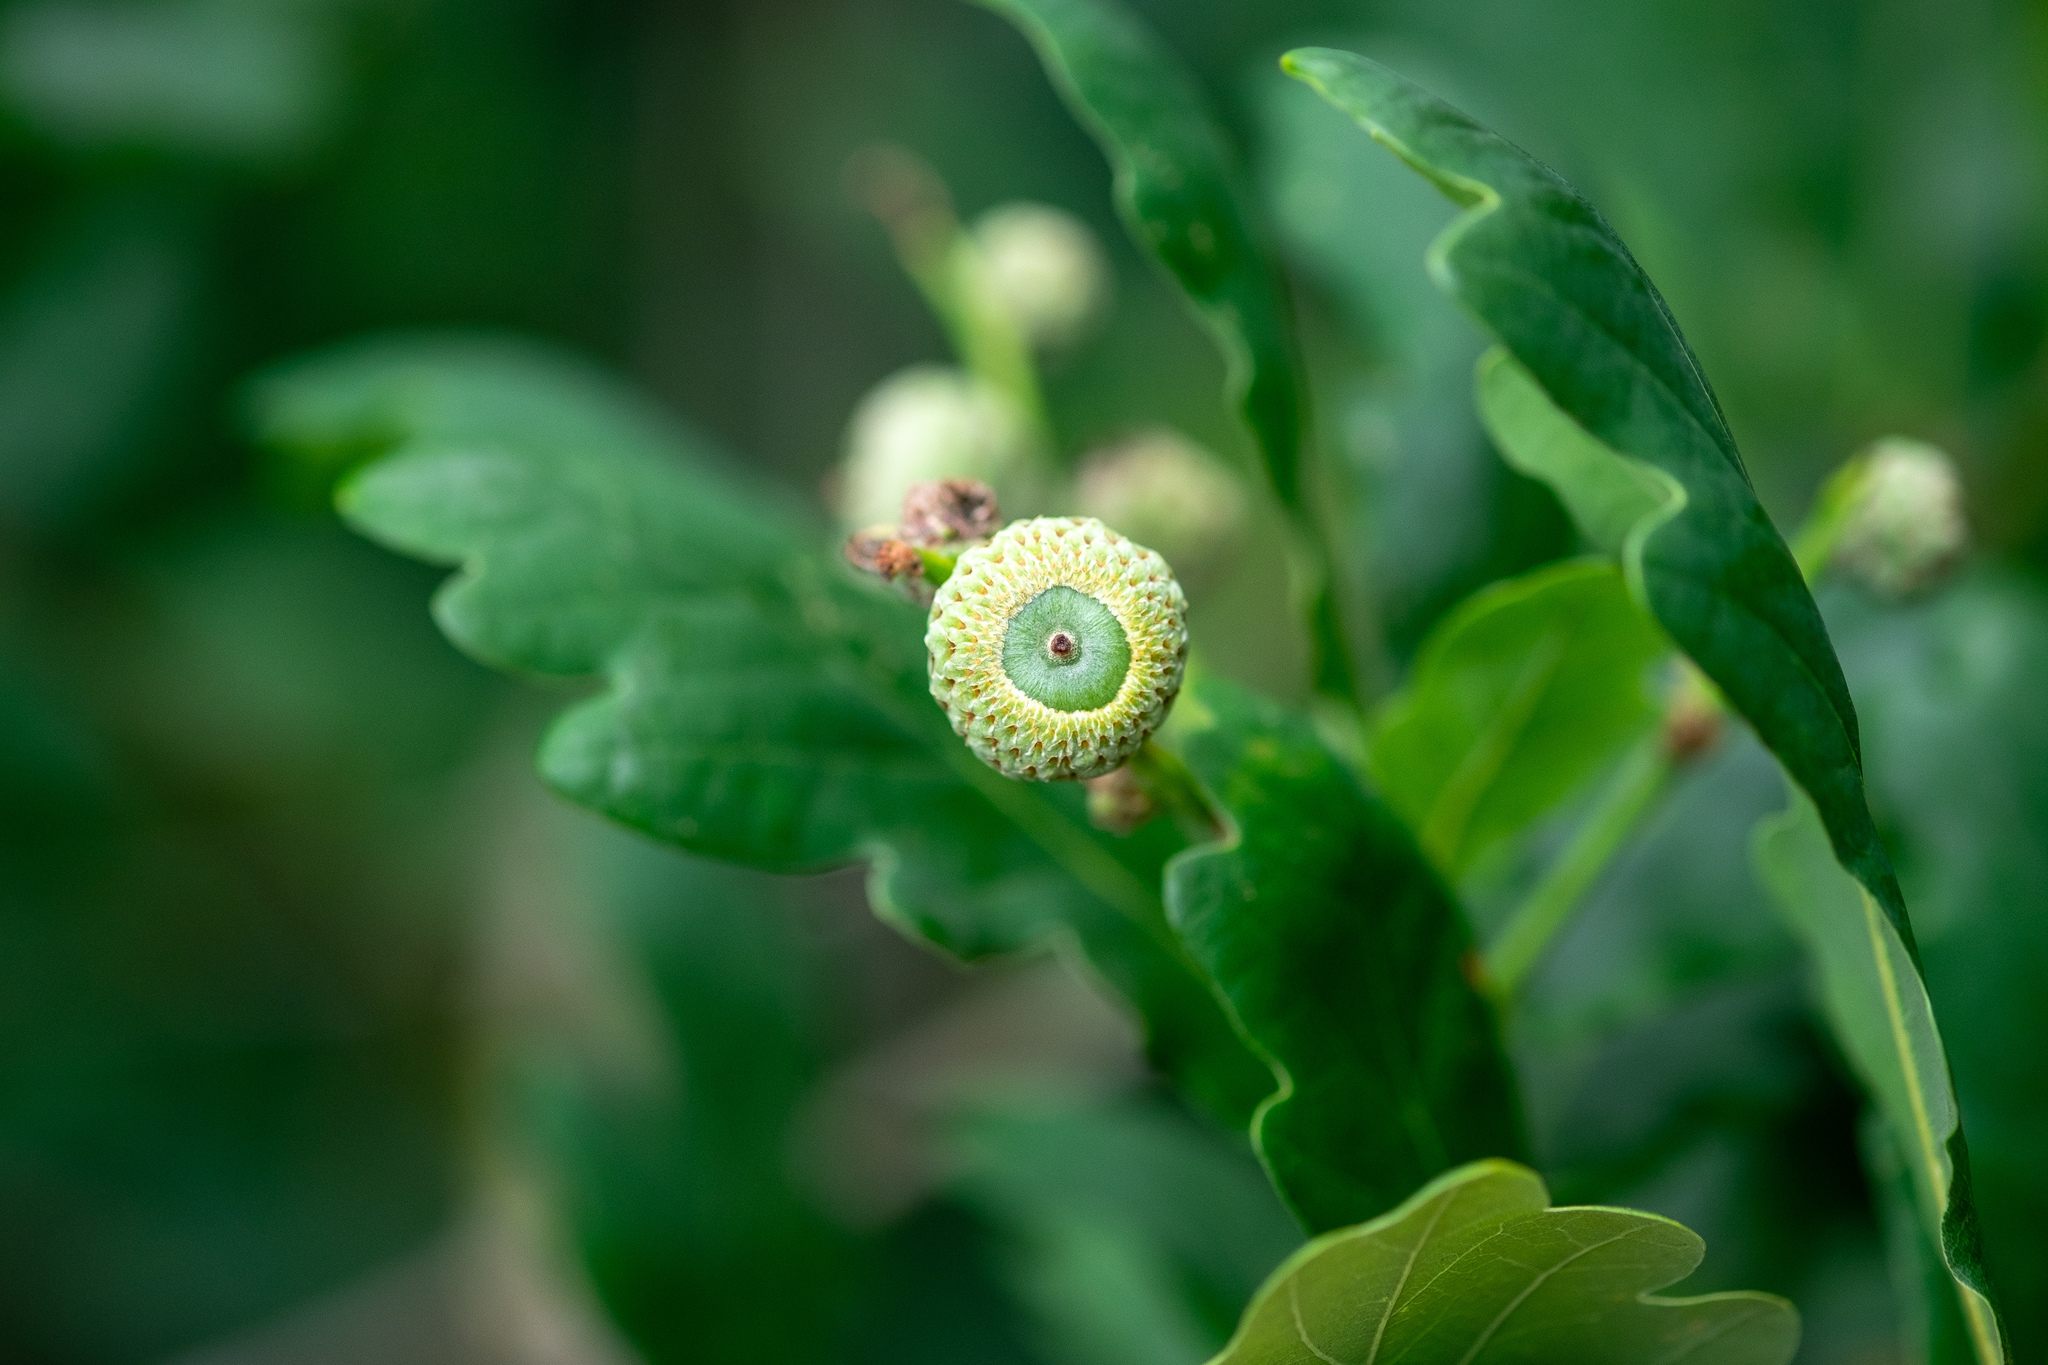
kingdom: Plantae
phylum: Tracheophyta
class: Magnoliopsida
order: Fagales
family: Fagaceae
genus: Quercus
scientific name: Quercus robur
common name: Pedunculate oak
